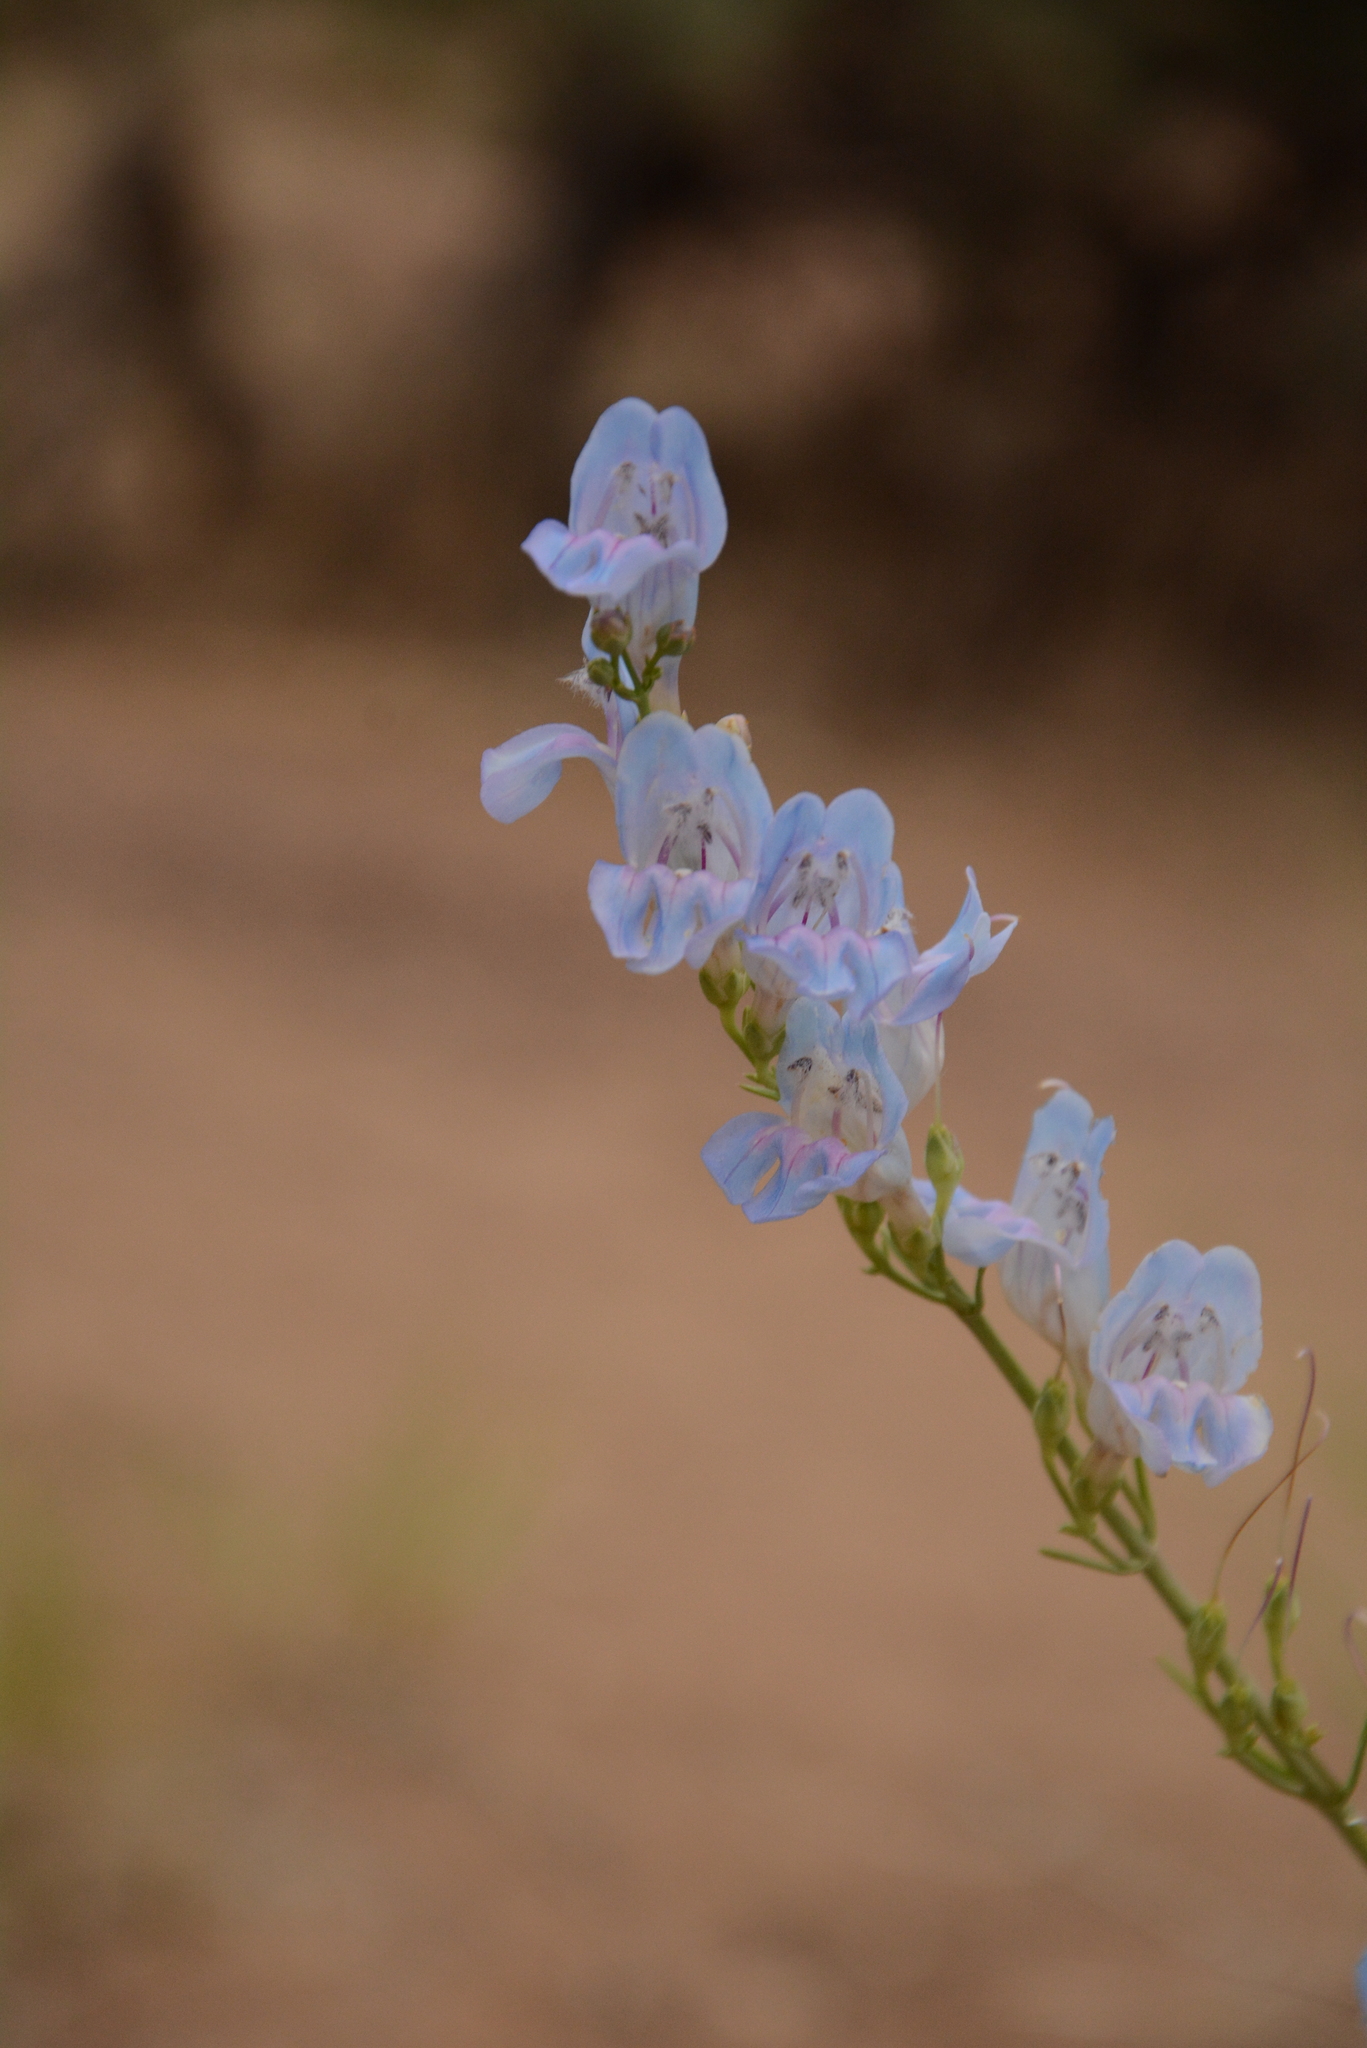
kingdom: Plantae
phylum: Tracheophyta
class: Magnoliopsida
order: Lamiales
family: Plantaginaceae
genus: Penstemon
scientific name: Penstemon comarrhenus
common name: Dusty penstemon
